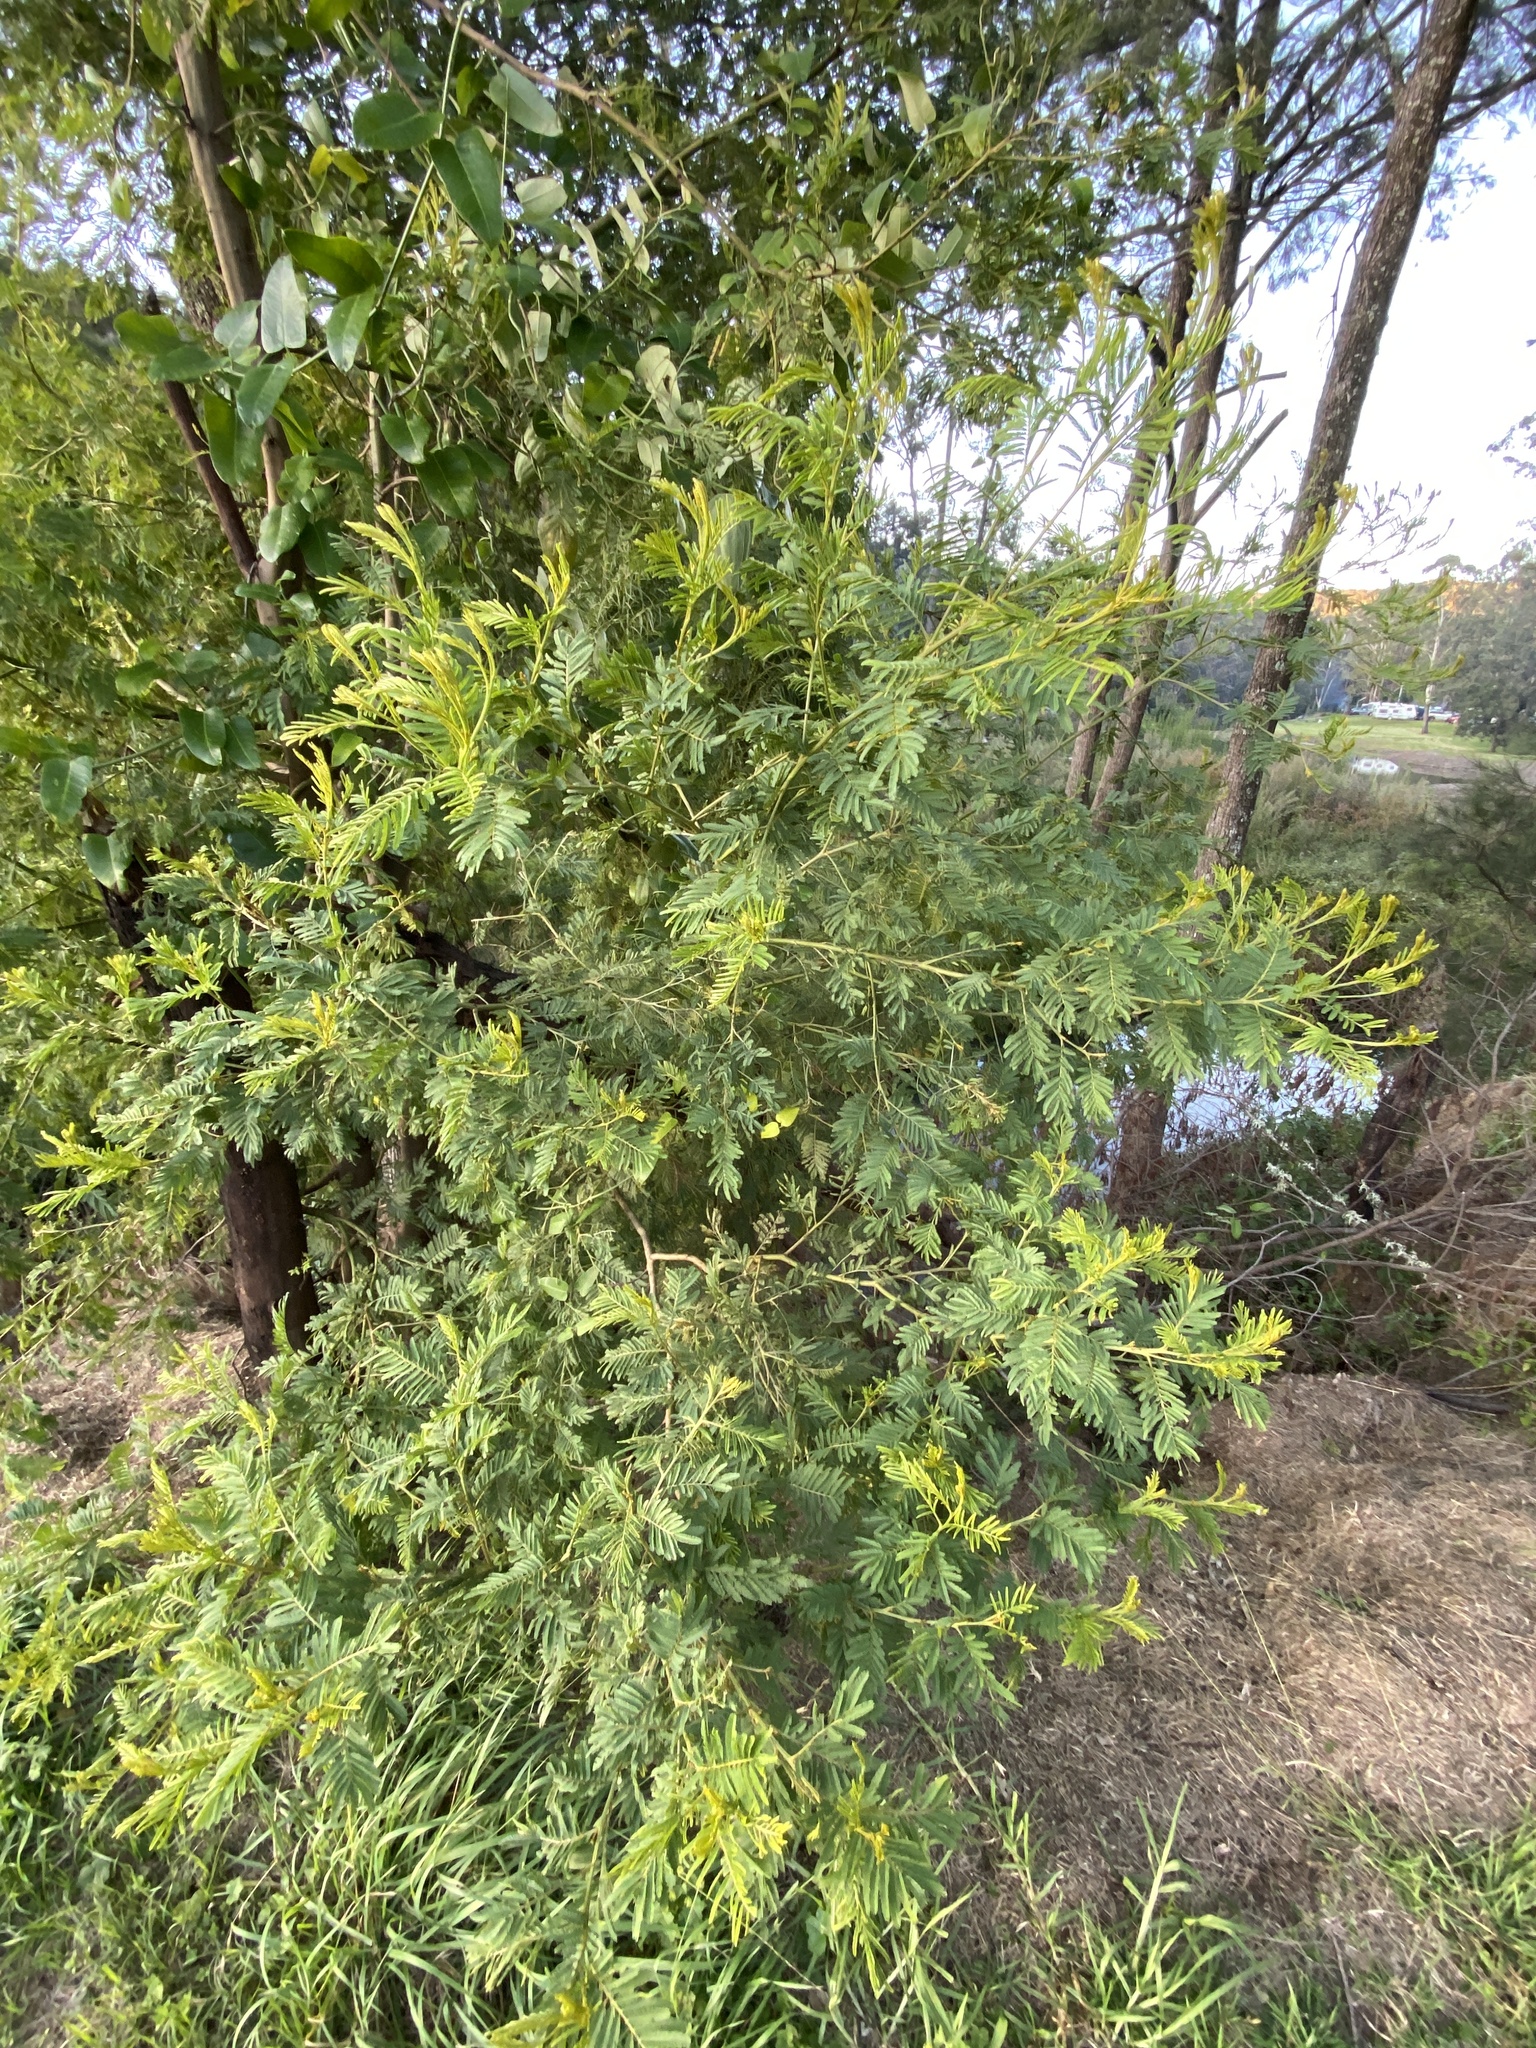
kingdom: Plantae
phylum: Tracheophyta
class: Magnoliopsida
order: Fabales
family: Fabaceae
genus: Acacia
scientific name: Acacia irrorata
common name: Green wattle
